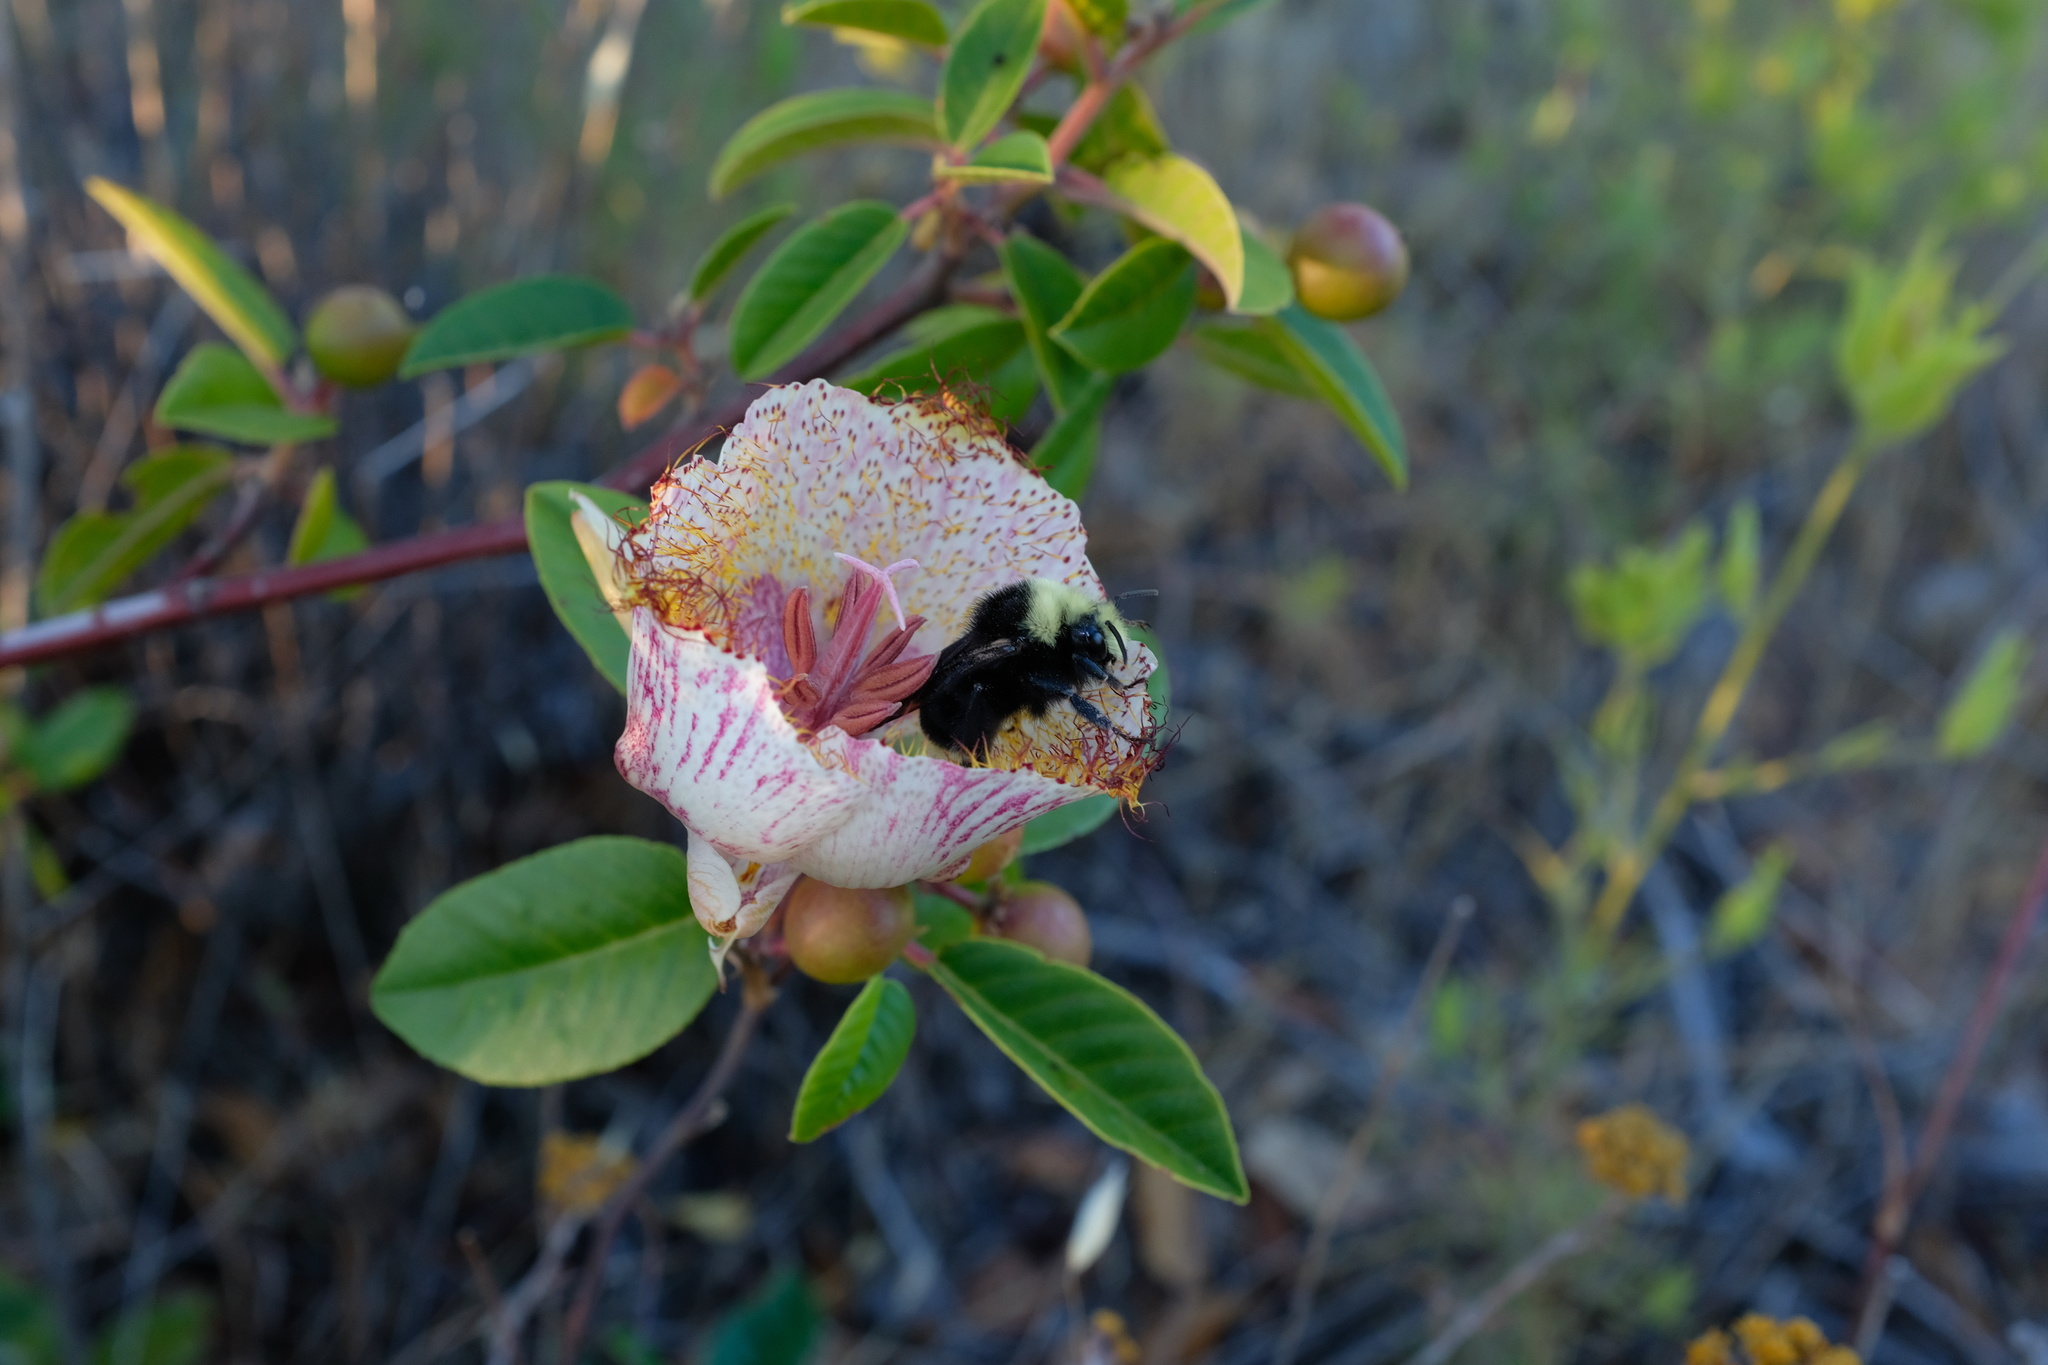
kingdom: Plantae
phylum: Tracheophyta
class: Liliopsida
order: Liliales
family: Liliaceae
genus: Calochortus
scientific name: Calochortus fimbriatus
